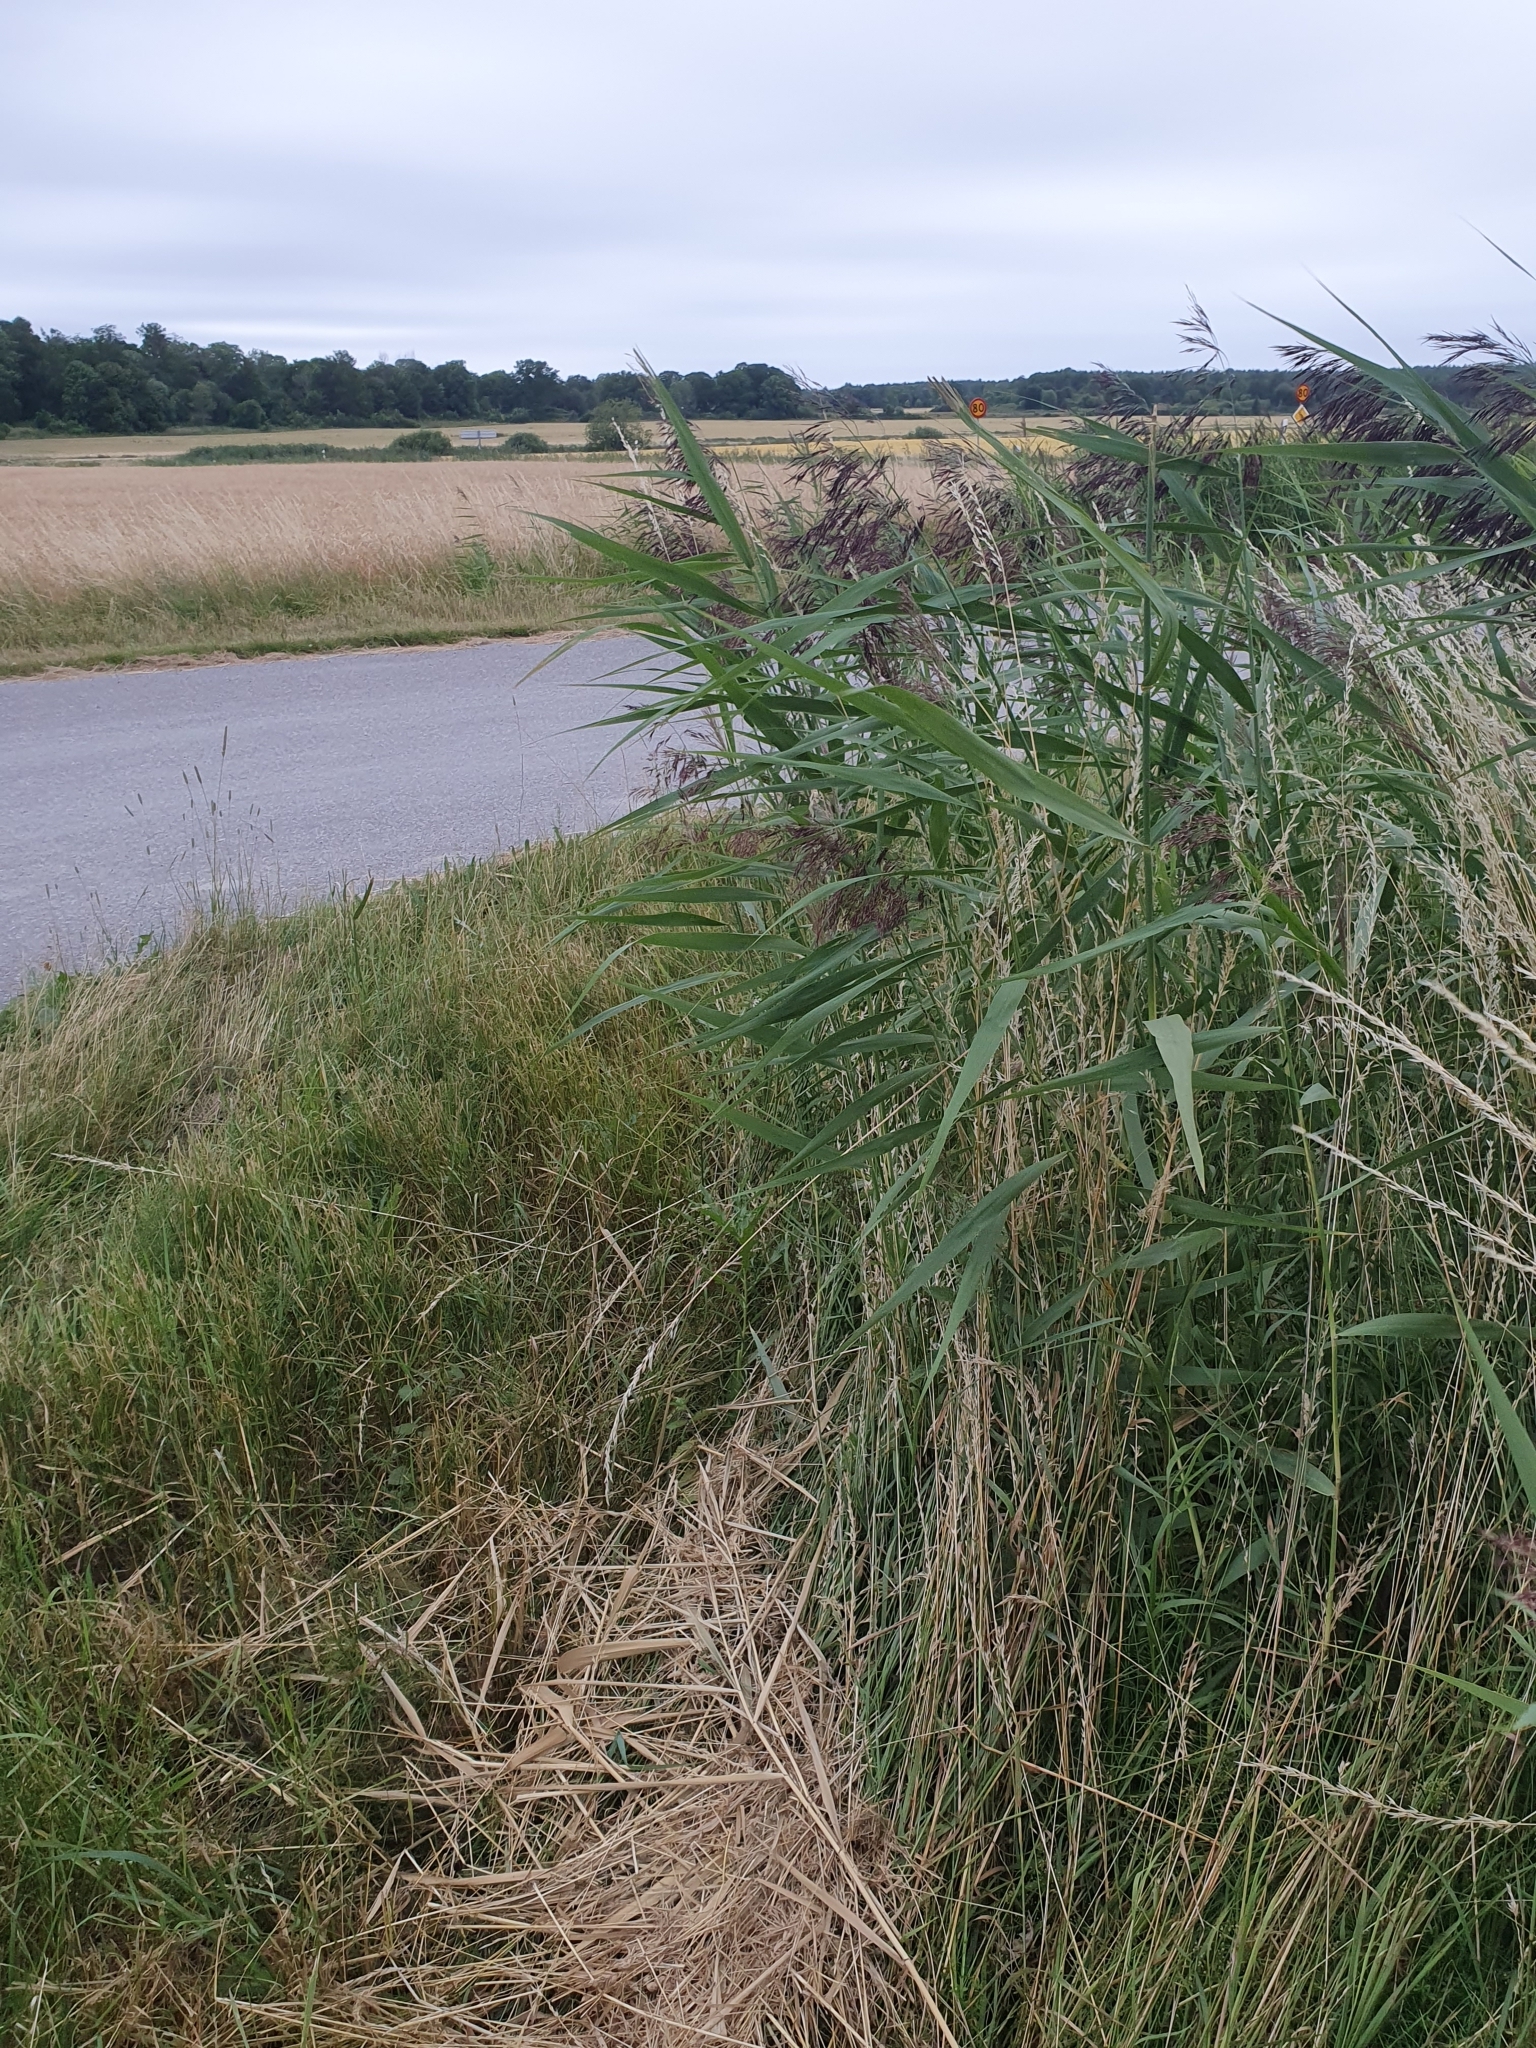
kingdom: Plantae
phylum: Tracheophyta
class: Liliopsida
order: Poales
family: Poaceae
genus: Phragmites
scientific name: Phragmites australis
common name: Common reed
